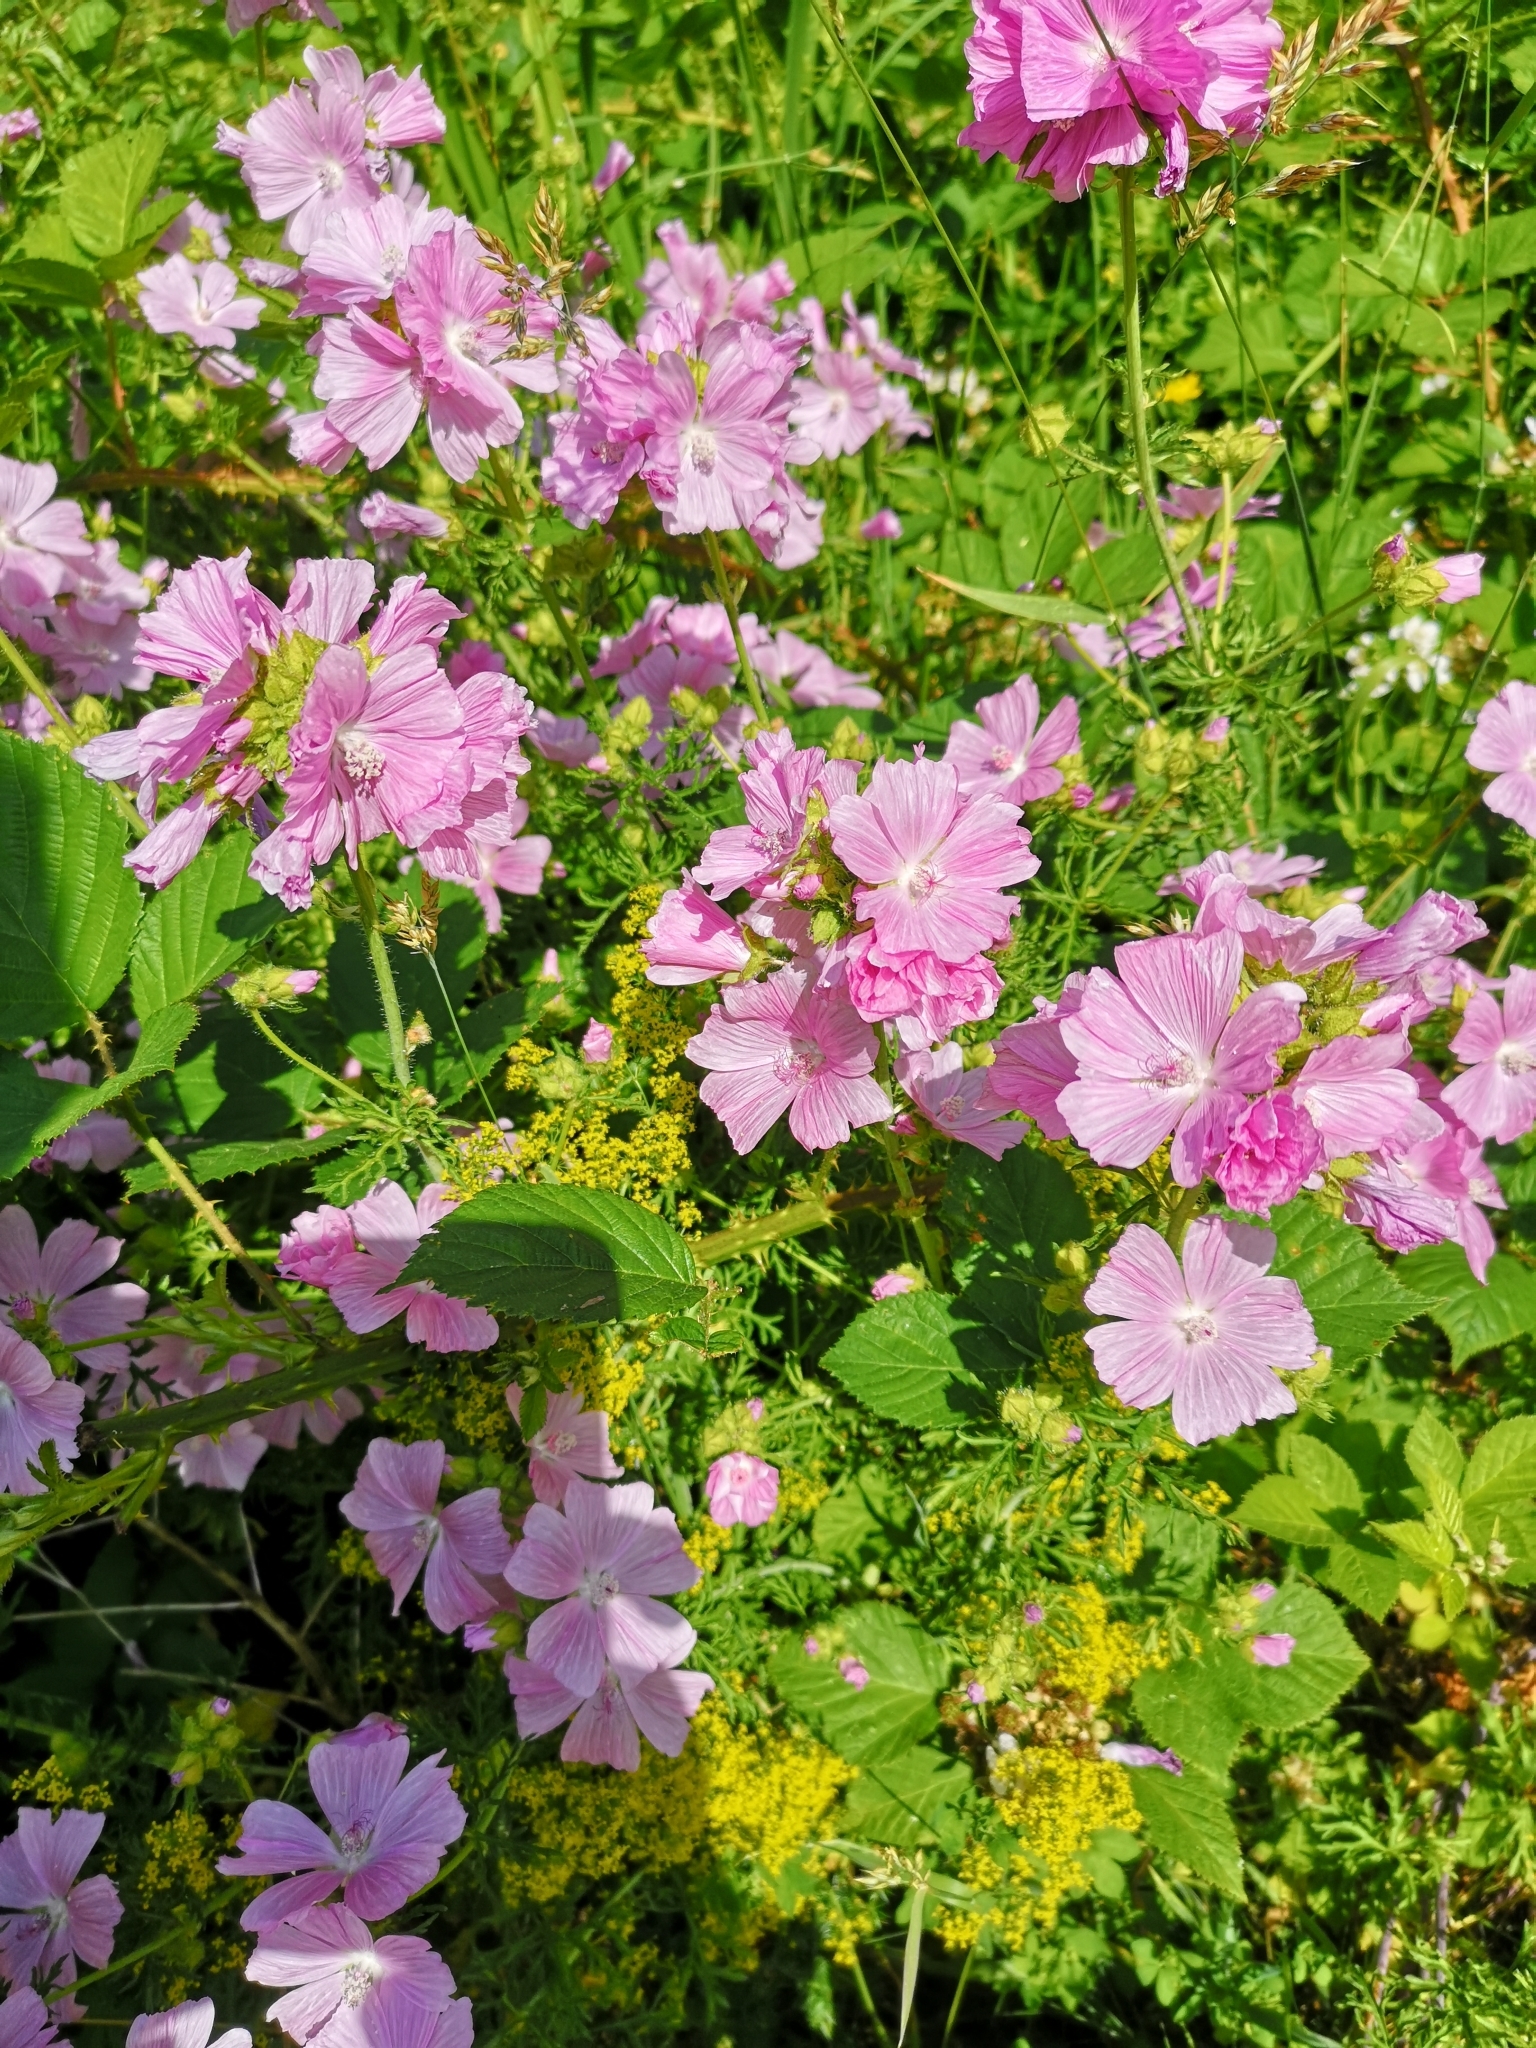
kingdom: Plantae
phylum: Tracheophyta
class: Magnoliopsida
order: Malvales
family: Malvaceae
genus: Malva
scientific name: Malva moschata
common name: Musk mallow
